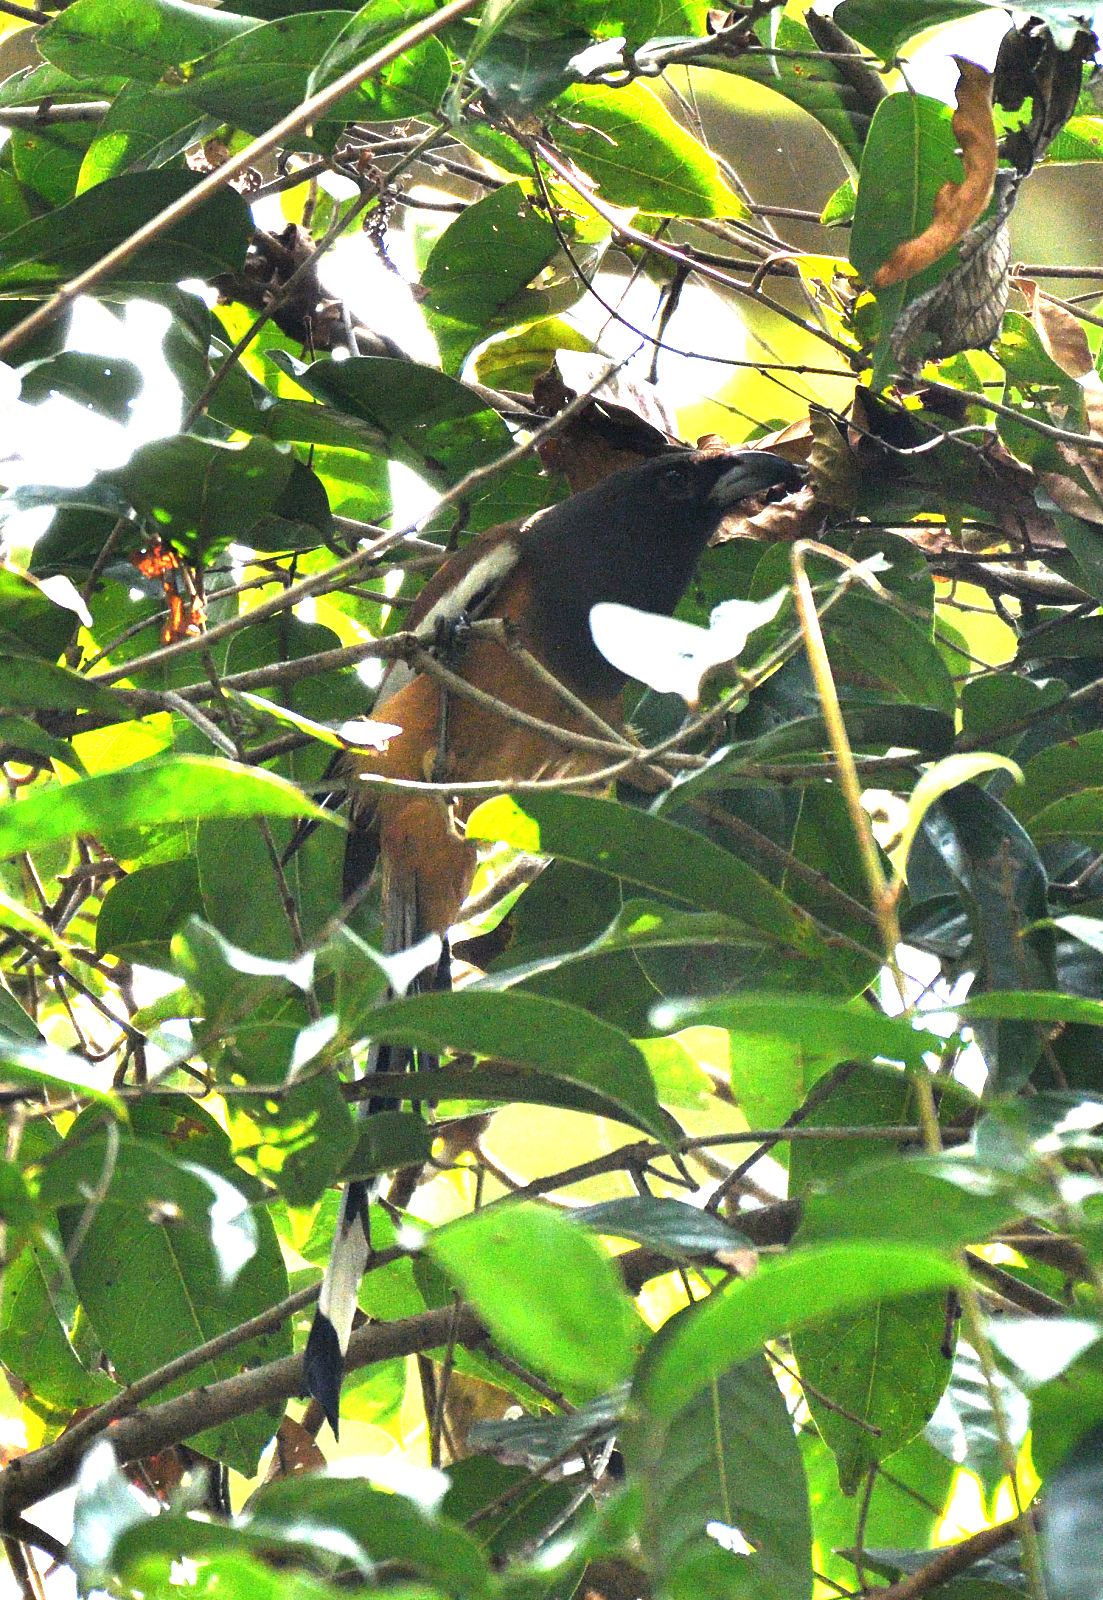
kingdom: Animalia
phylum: Chordata
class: Aves
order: Passeriformes
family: Corvidae
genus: Dendrocitta
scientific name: Dendrocitta vagabunda
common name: Rufous treepie
